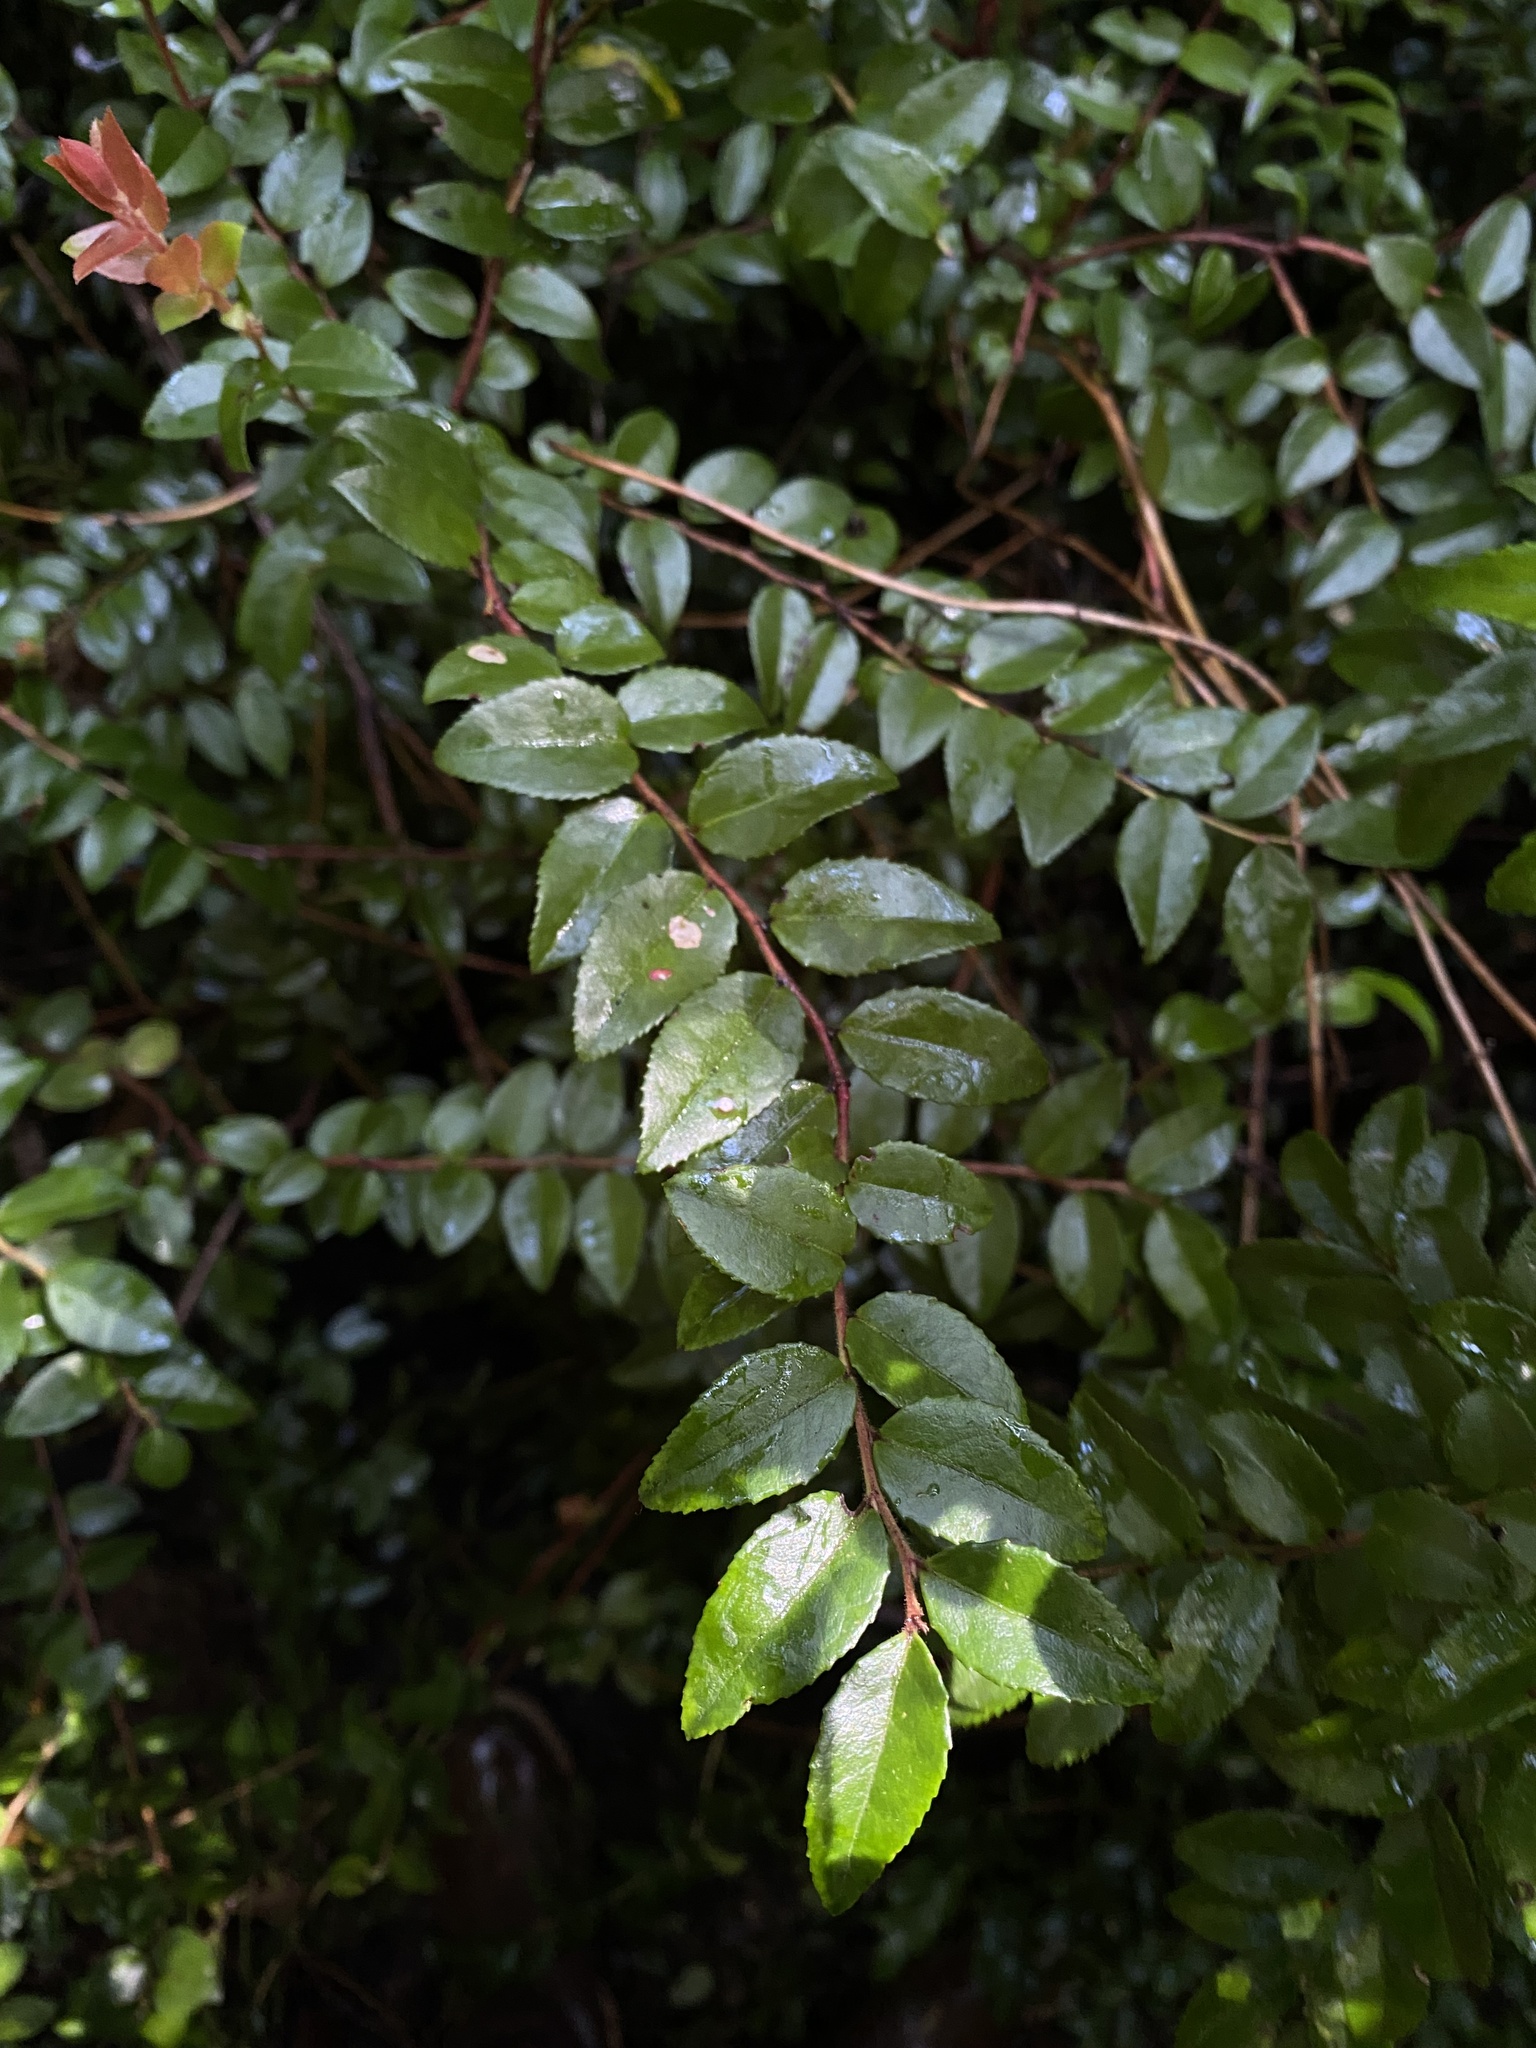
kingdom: Plantae
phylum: Tracheophyta
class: Magnoliopsida
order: Ericales
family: Ericaceae
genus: Vaccinium
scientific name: Vaccinium ovatum
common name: California-huckleberry
